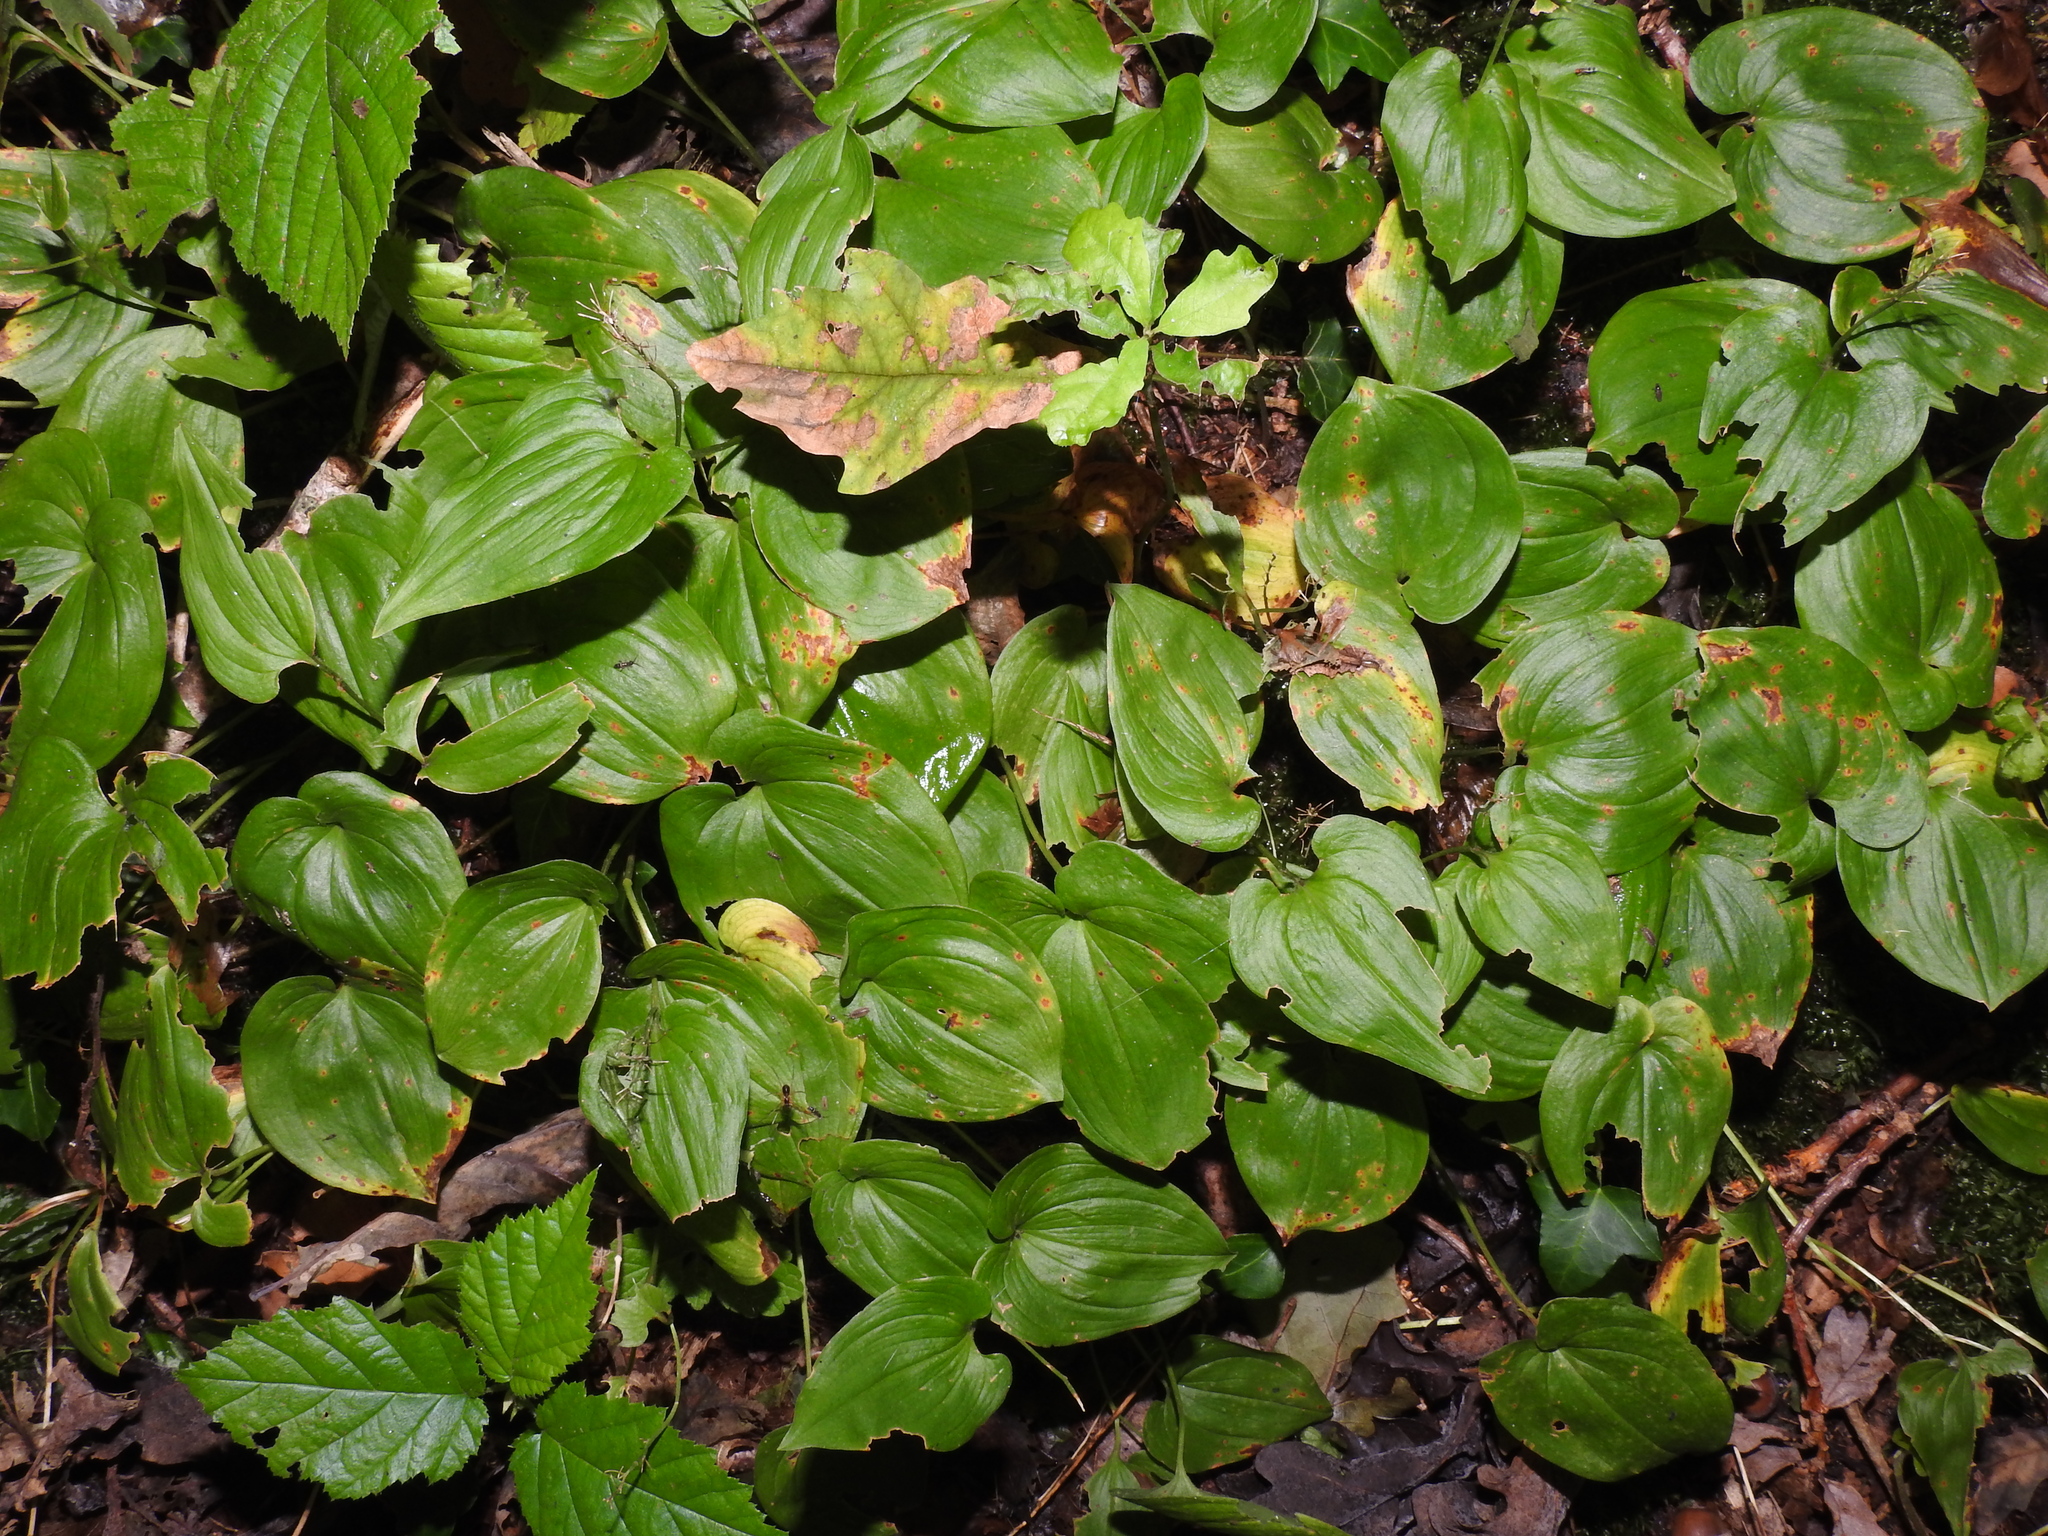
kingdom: Plantae
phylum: Tracheophyta
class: Liliopsida
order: Asparagales
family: Asparagaceae
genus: Maianthemum
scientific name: Maianthemum bifolium
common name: May lily
